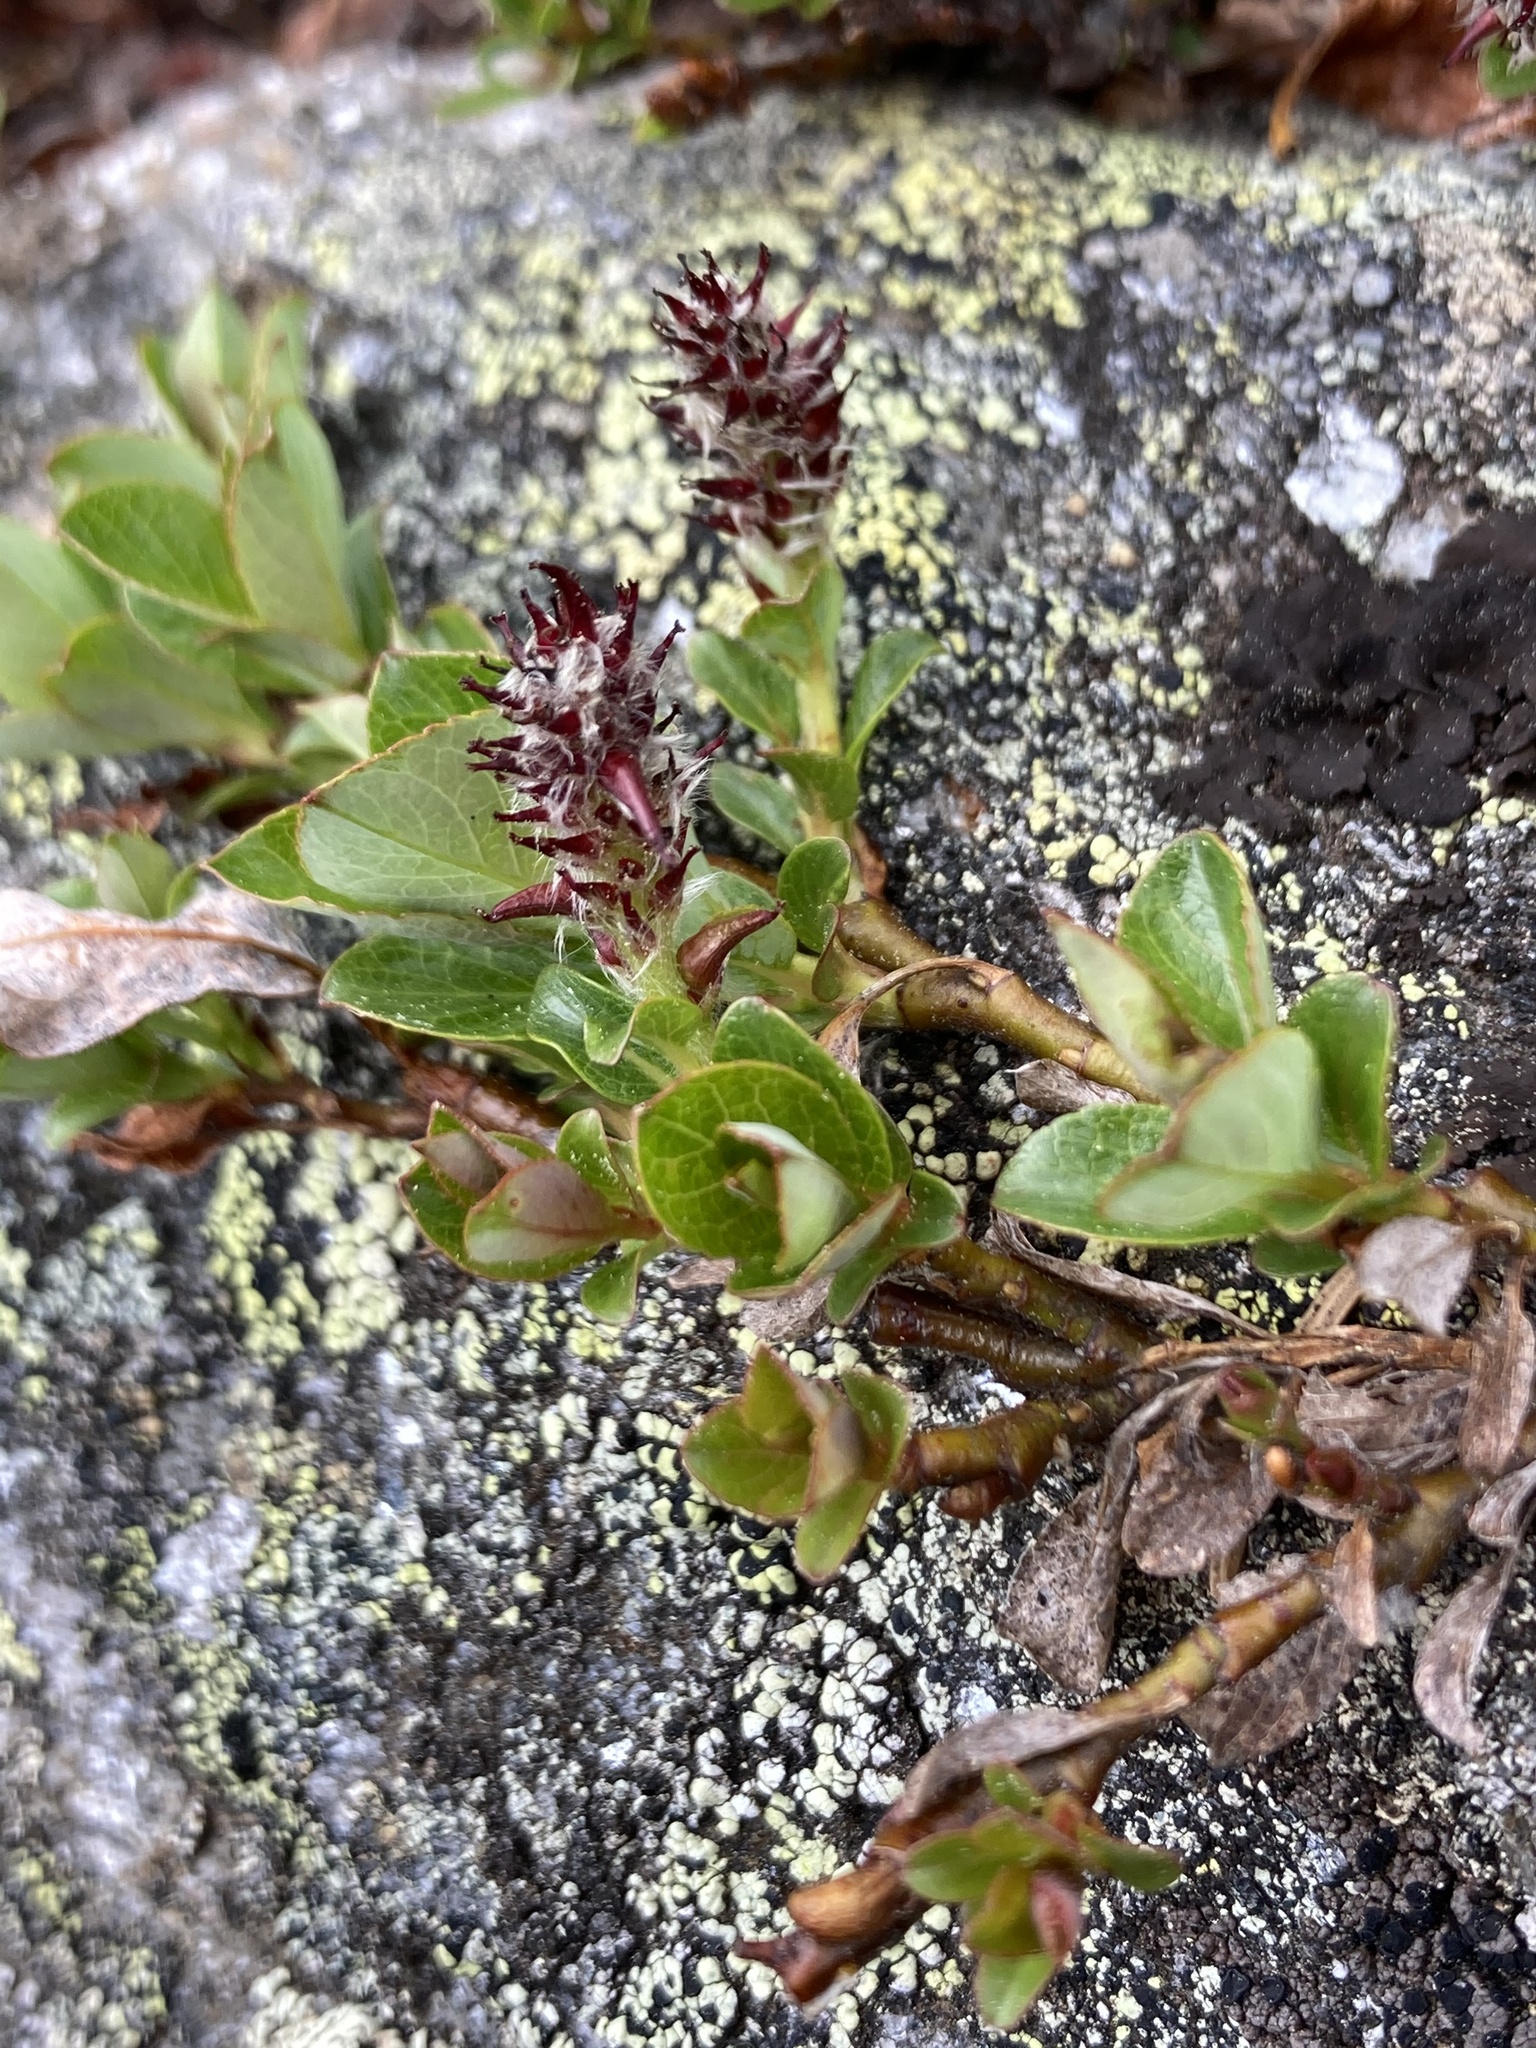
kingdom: Plantae
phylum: Tracheophyta
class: Magnoliopsida
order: Malpighiales
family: Salicaceae
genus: Salix
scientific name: Salix uva-ursi
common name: Bearberry willow
